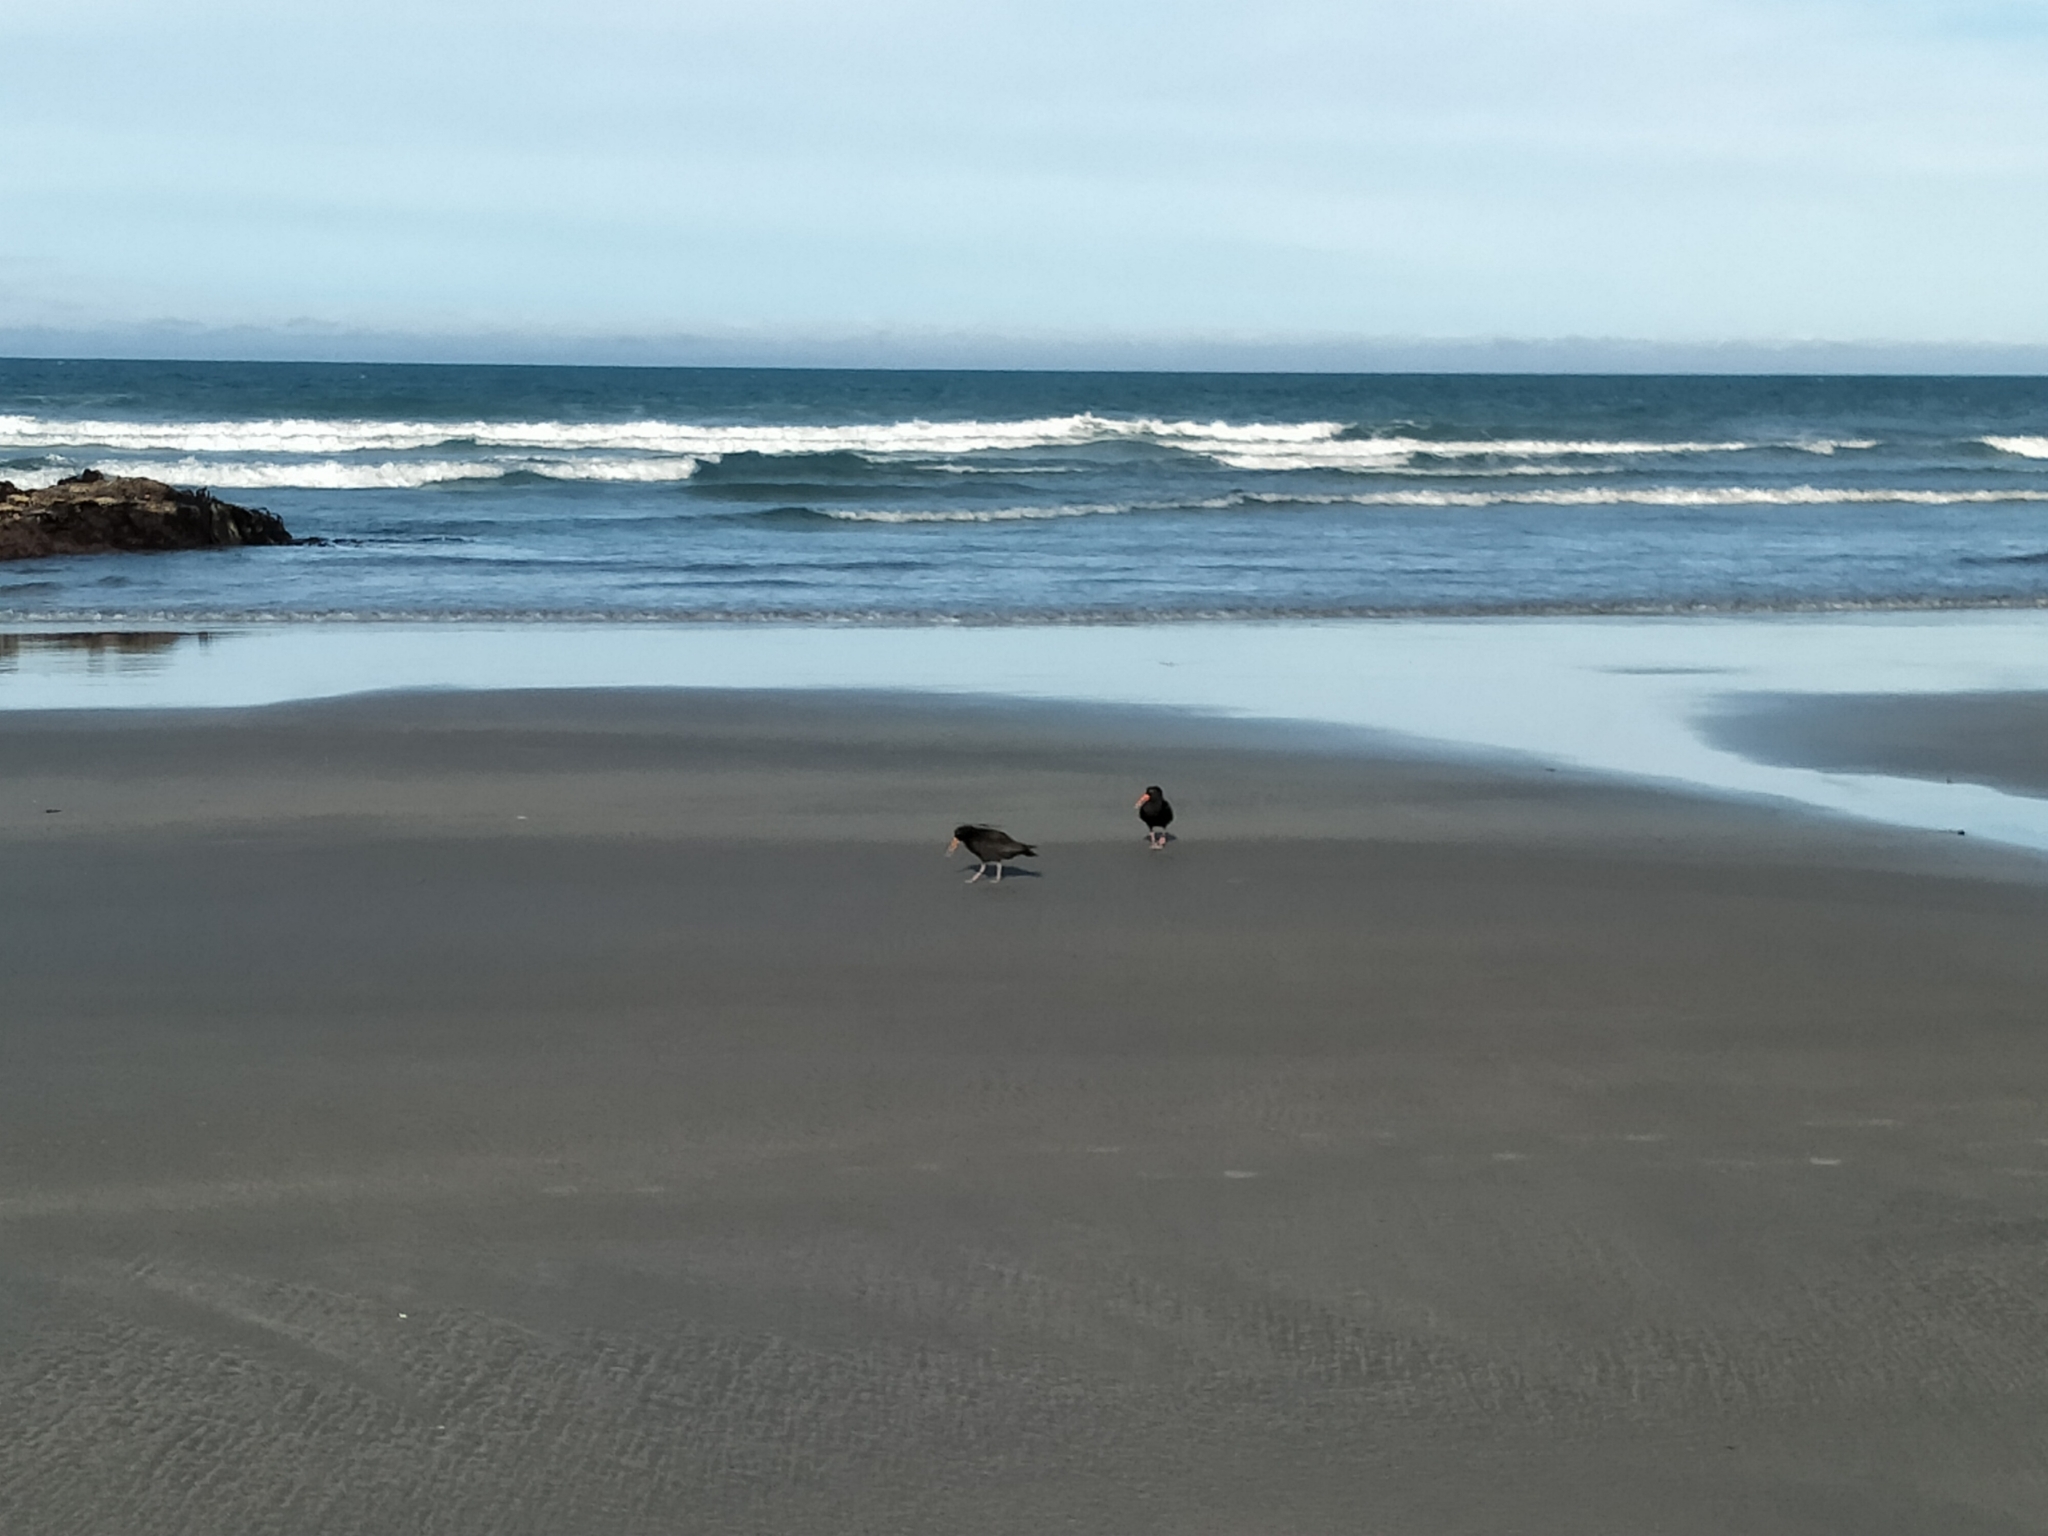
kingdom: Animalia
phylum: Chordata
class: Aves
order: Charadriiformes
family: Haematopodidae
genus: Haematopus
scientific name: Haematopus unicolor
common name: Variable oystercatcher
